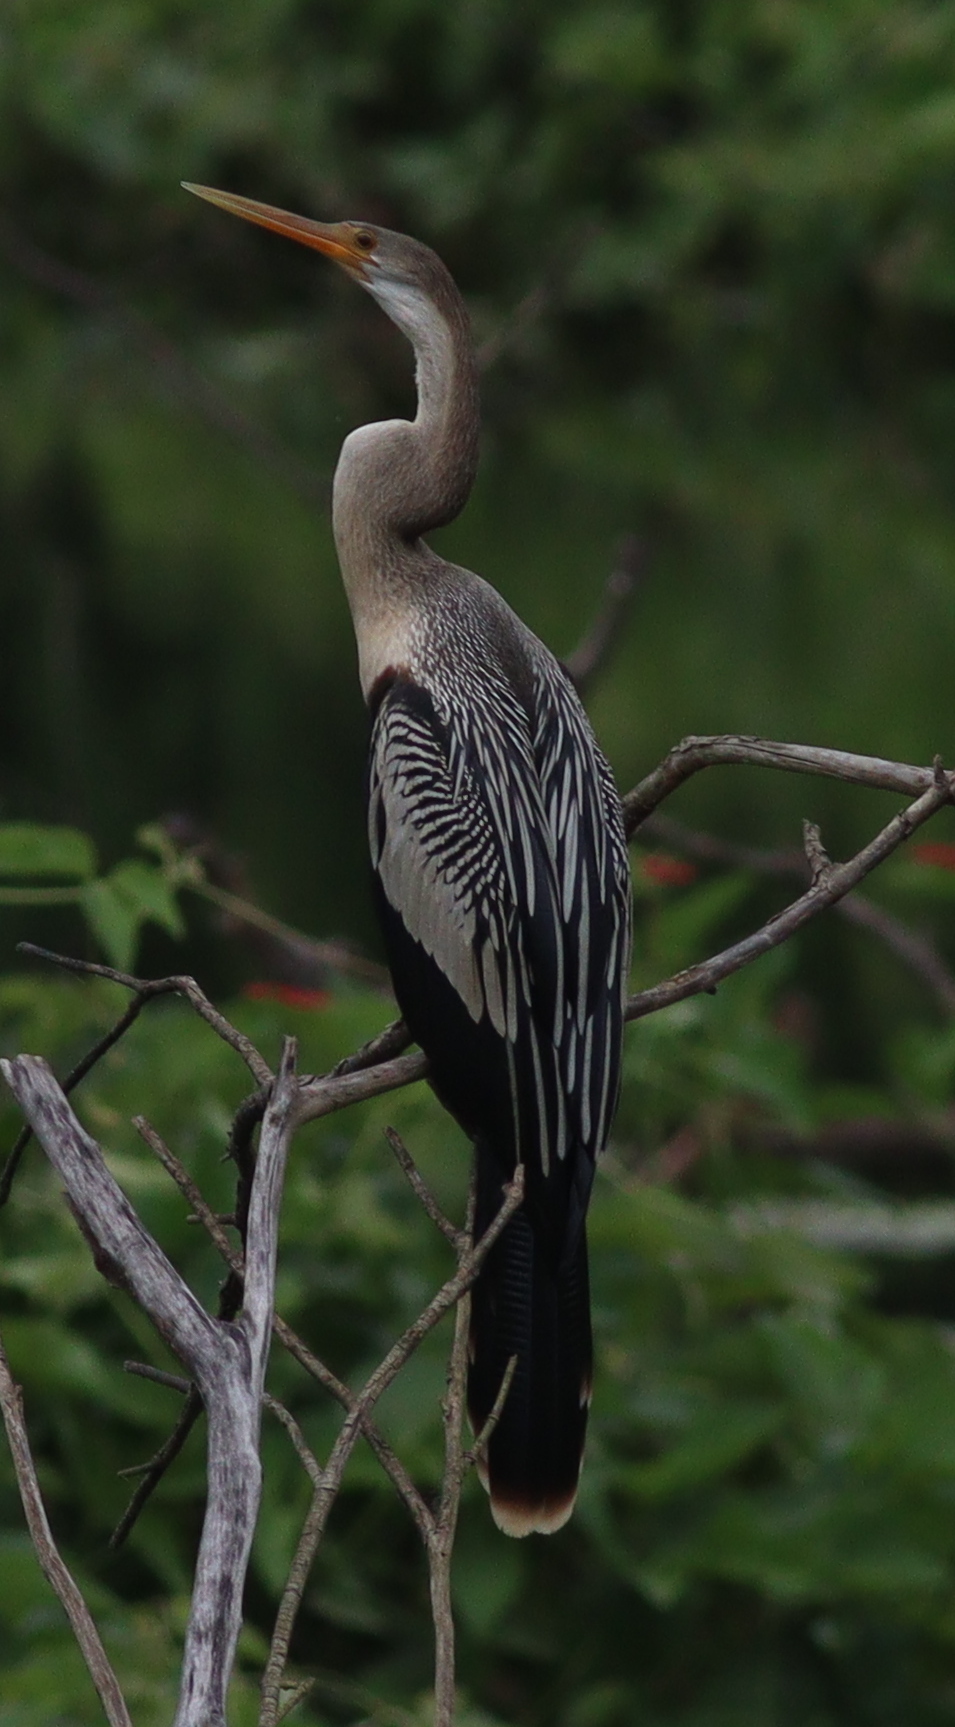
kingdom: Animalia
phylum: Chordata
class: Aves
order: Suliformes
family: Anhingidae
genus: Anhinga
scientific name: Anhinga anhinga
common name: Anhinga
